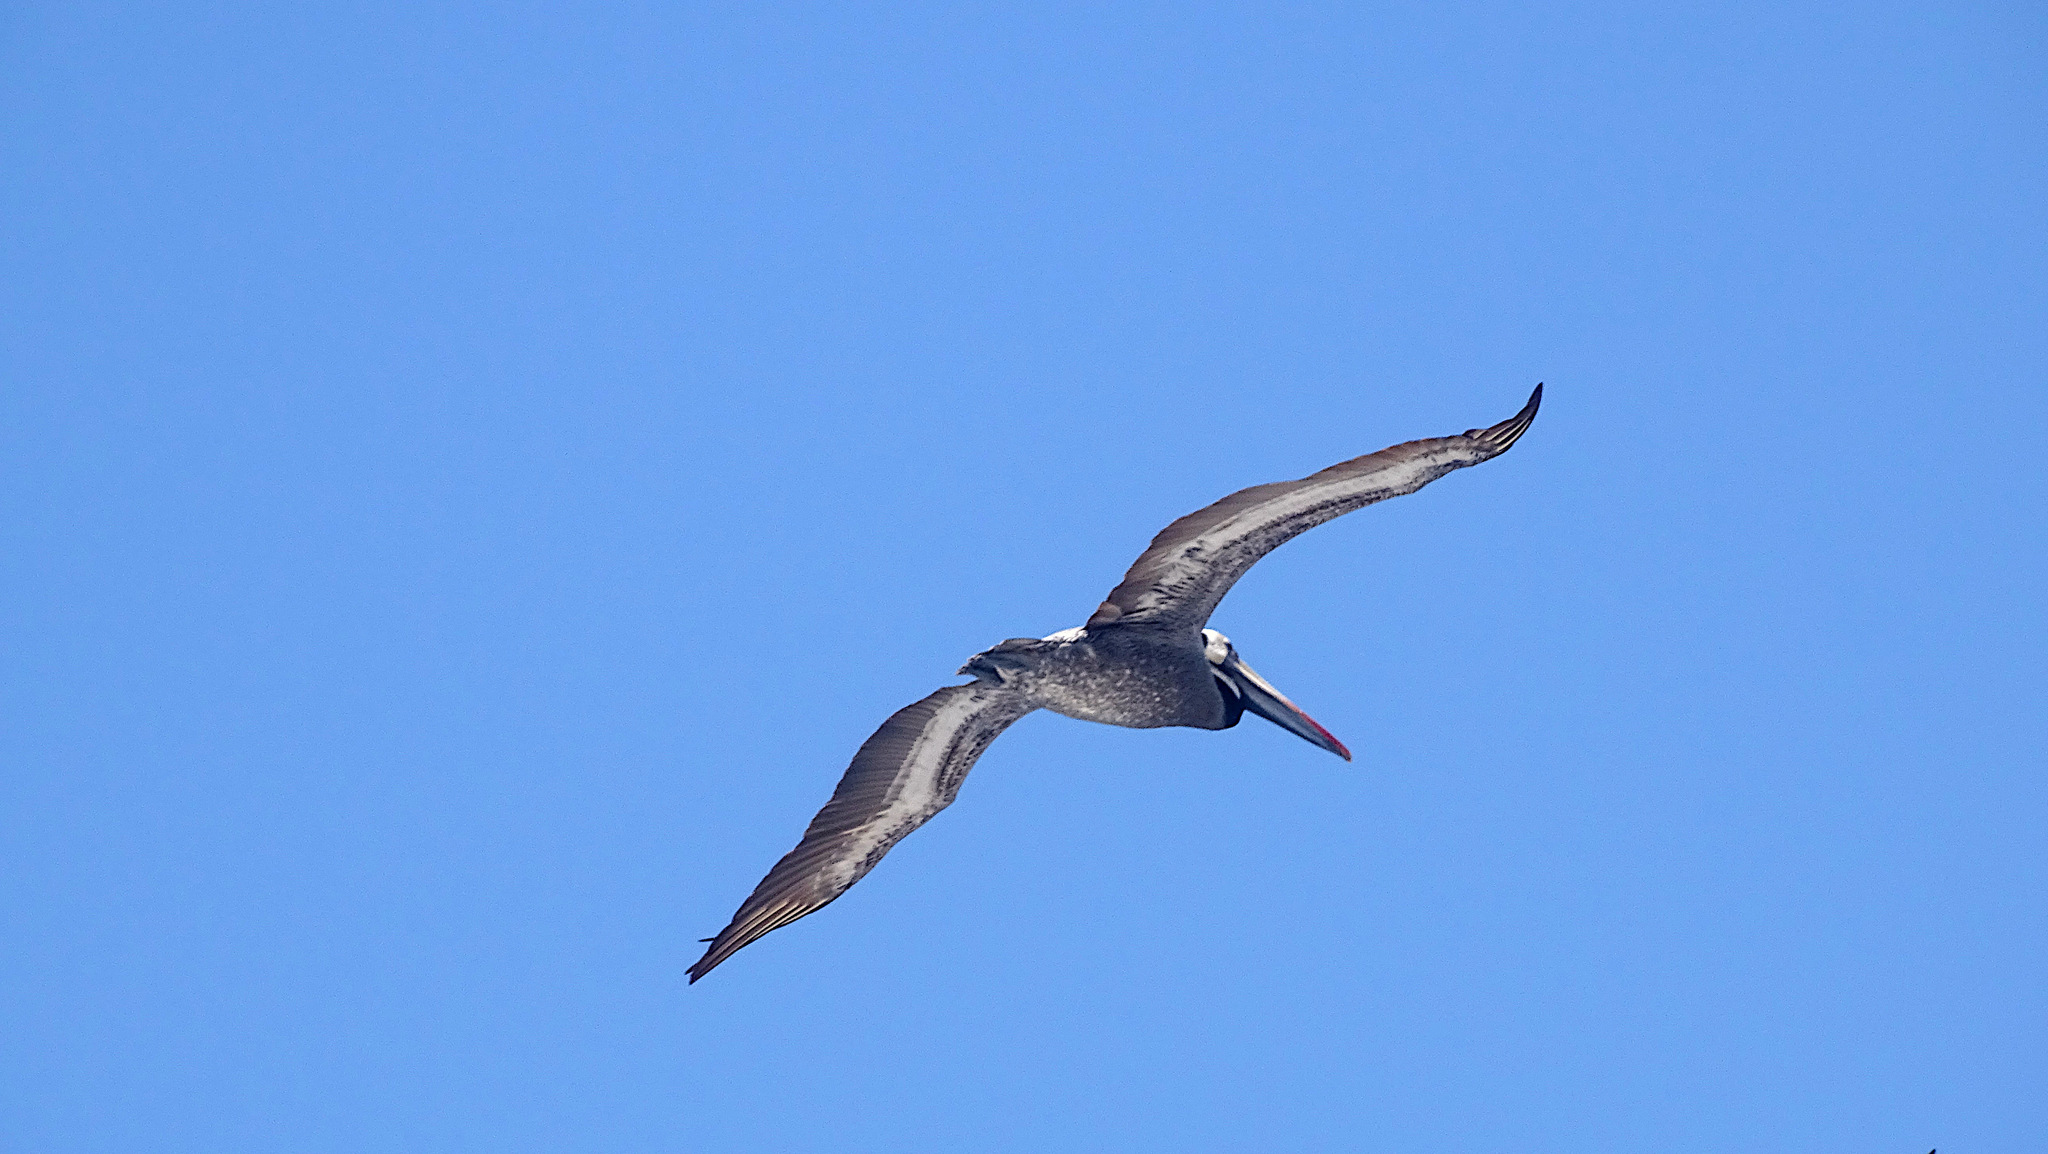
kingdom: Animalia
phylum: Chordata
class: Aves
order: Pelecaniformes
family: Pelecanidae
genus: Pelecanus
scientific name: Pelecanus thagus
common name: Peruvian pelican
